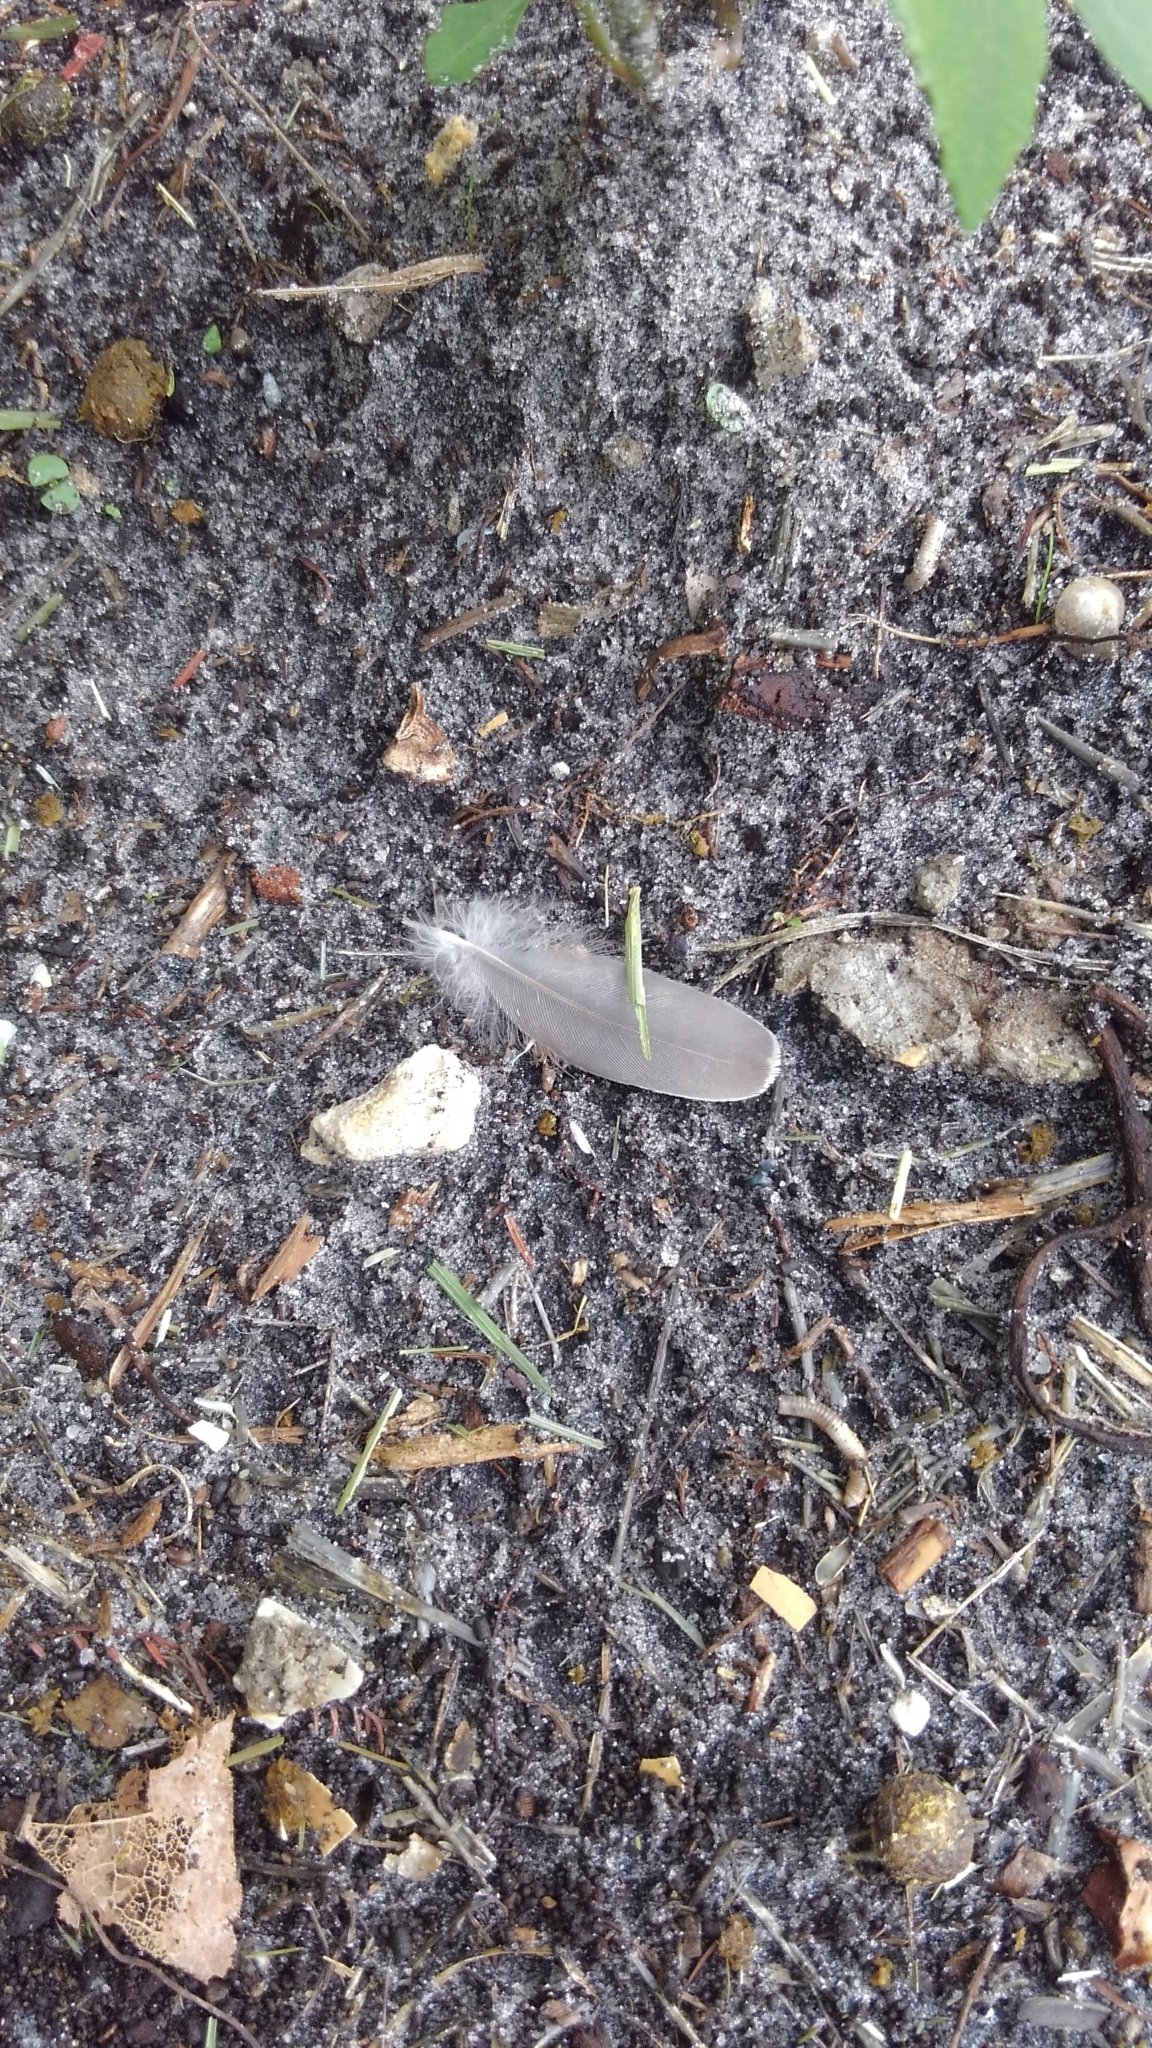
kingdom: Animalia
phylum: Chordata
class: Aves
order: Columbiformes
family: Columbidae
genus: Zenaida
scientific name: Zenaida macroura
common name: Mourning dove
